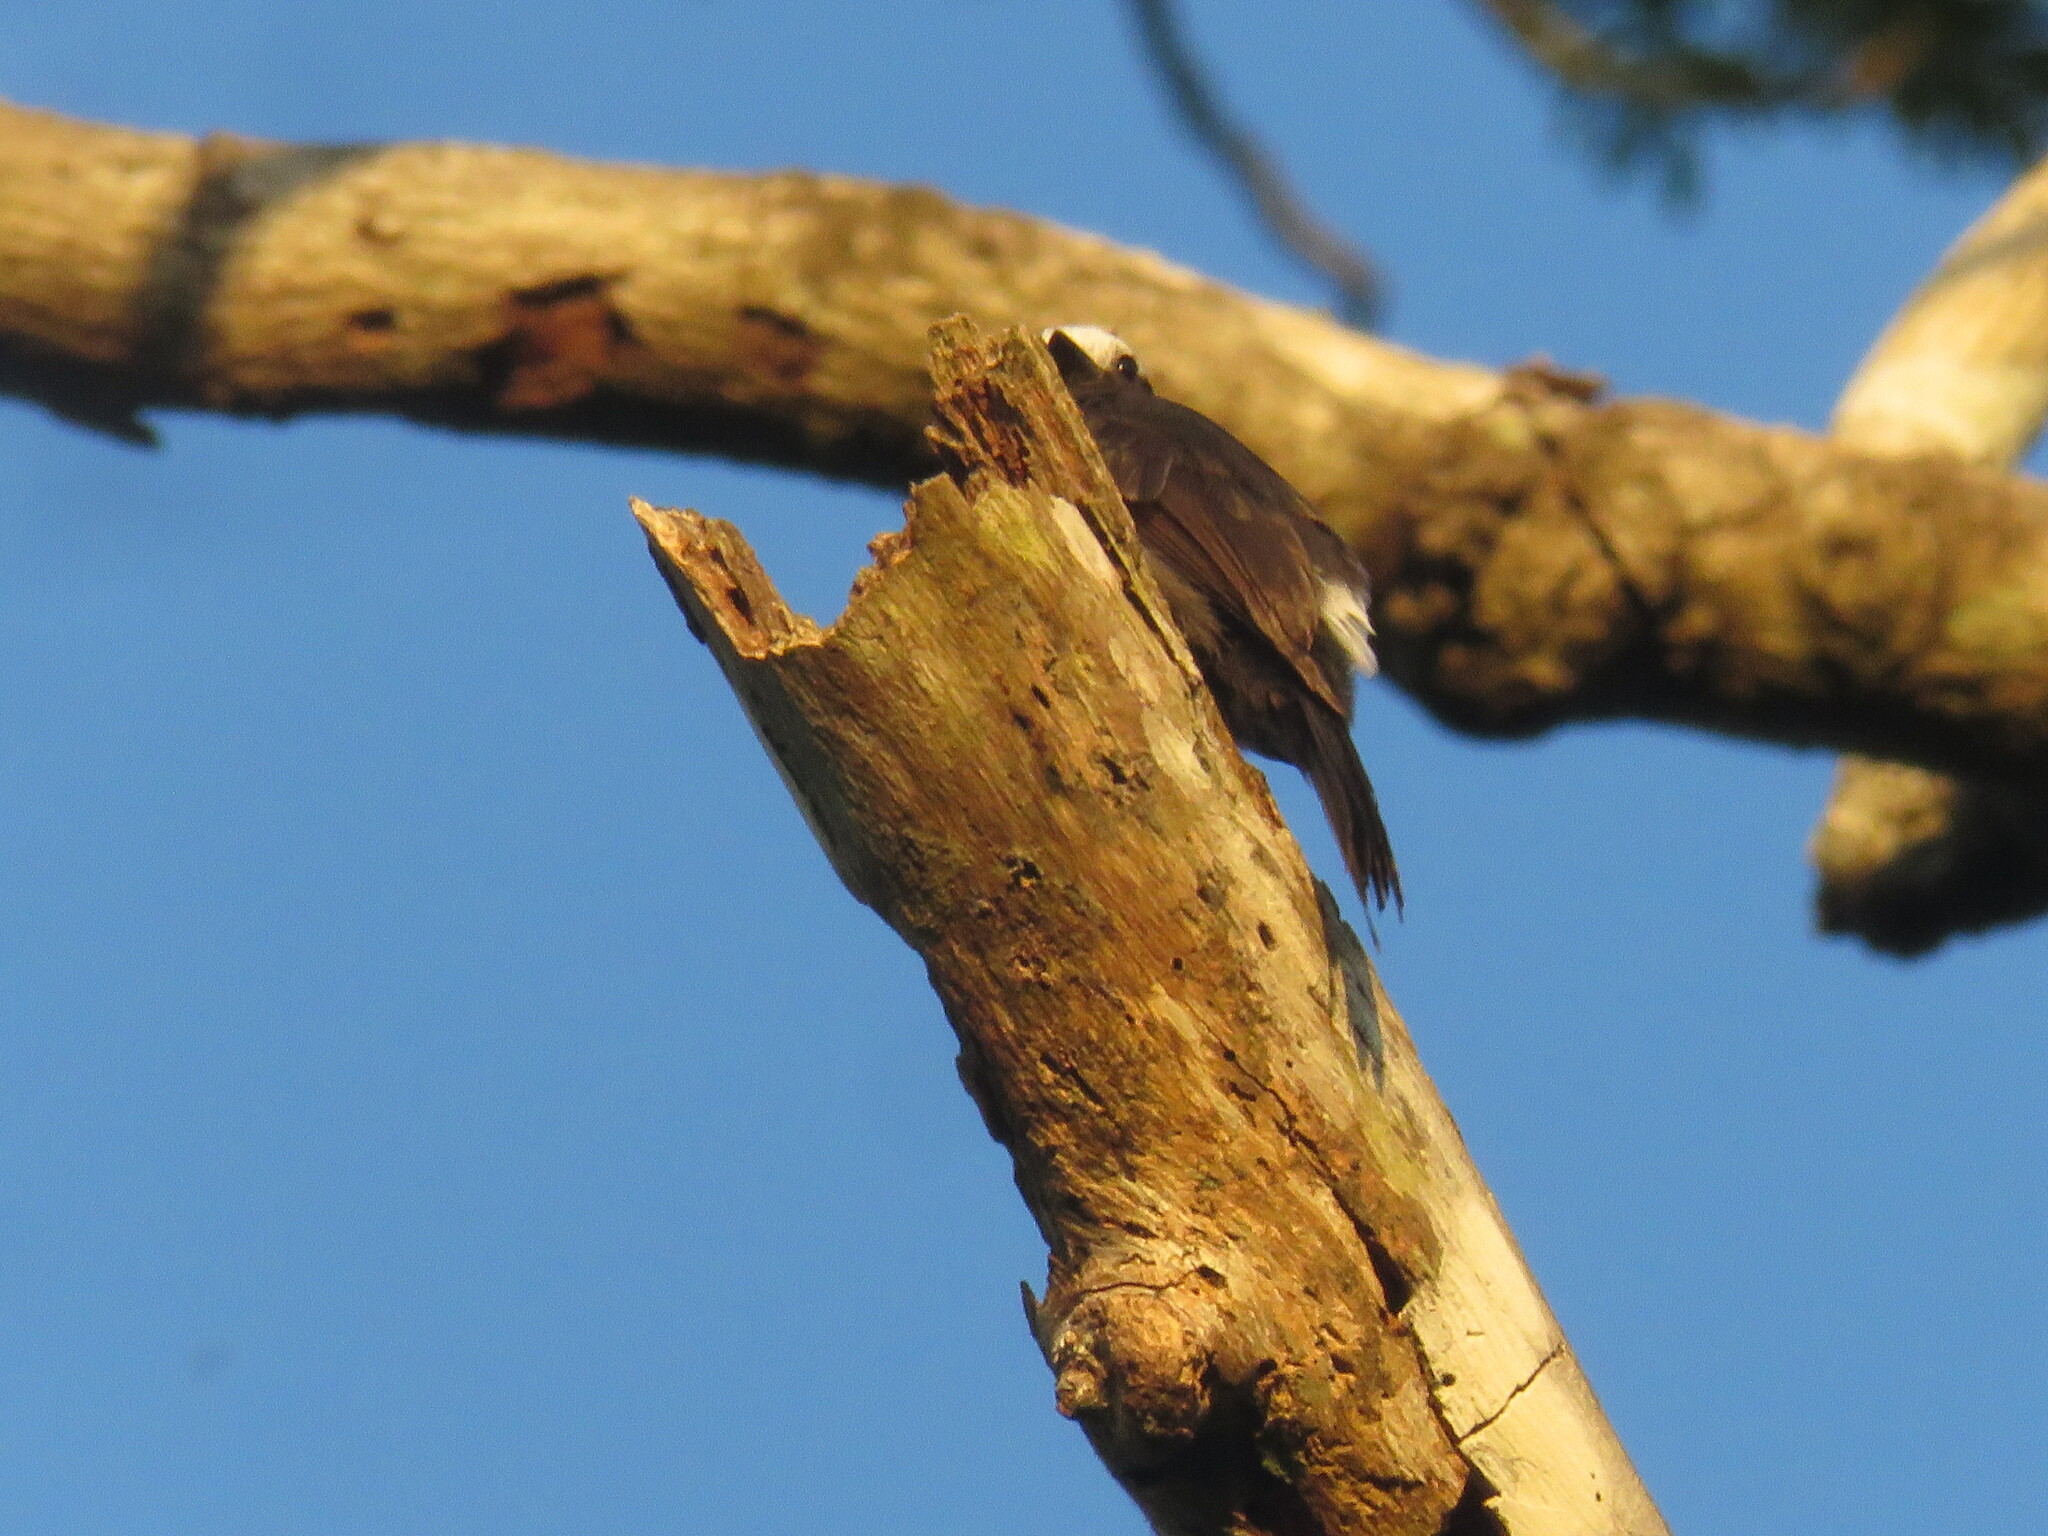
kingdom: Animalia
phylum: Chordata
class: Aves
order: Passeriformes
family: Tyrannidae
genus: Colonia
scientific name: Colonia colonus
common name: Long-tailed tyrant
